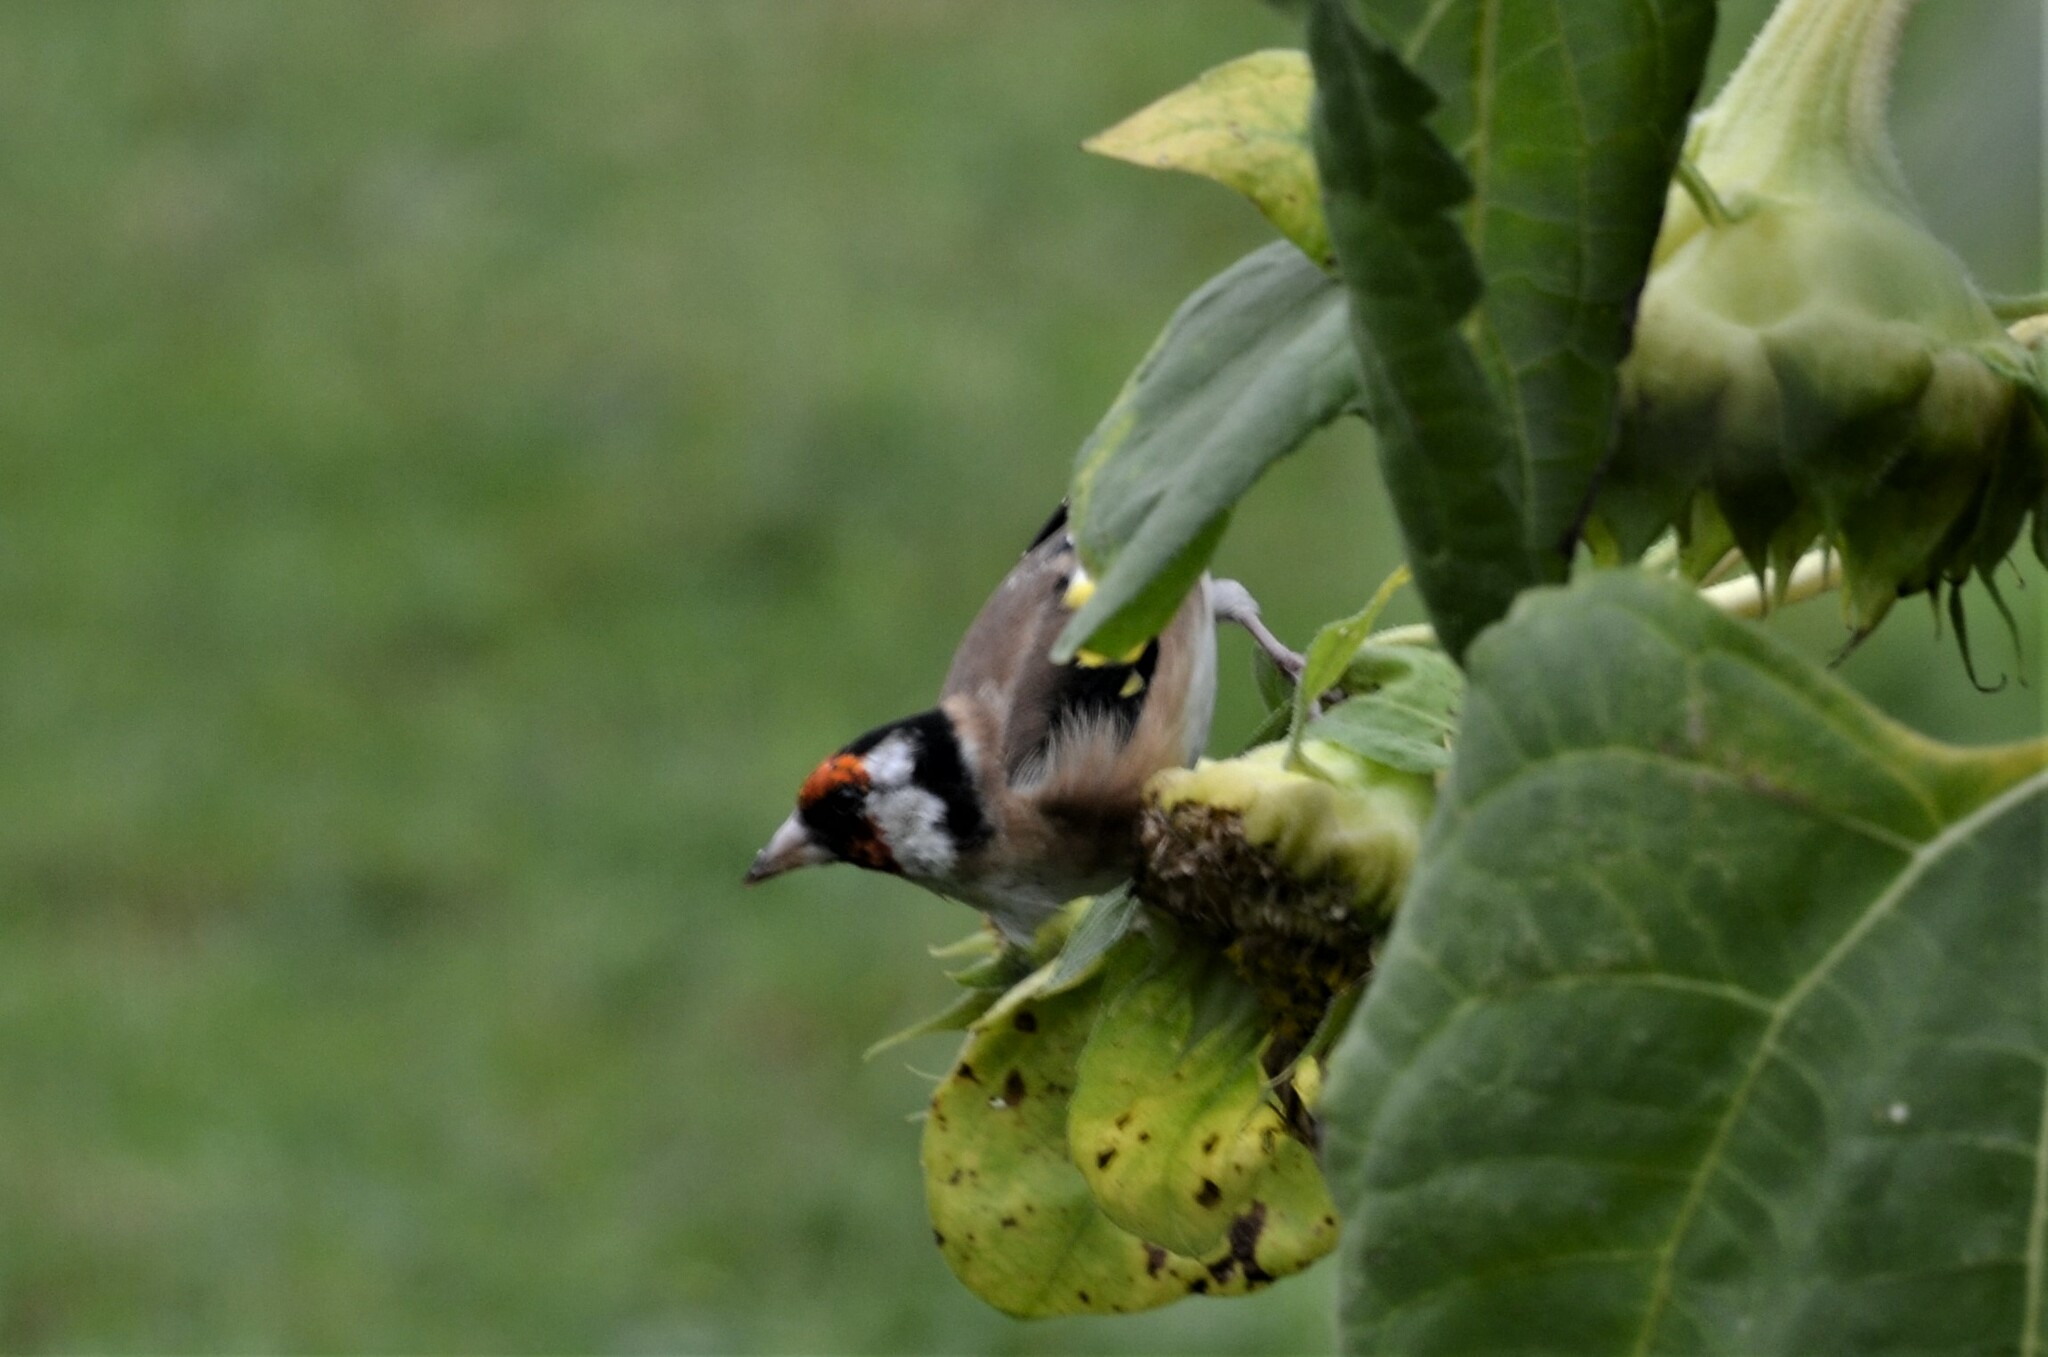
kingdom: Animalia
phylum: Chordata
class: Aves
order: Passeriformes
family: Fringillidae
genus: Carduelis
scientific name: Carduelis carduelis
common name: European goldfinch
